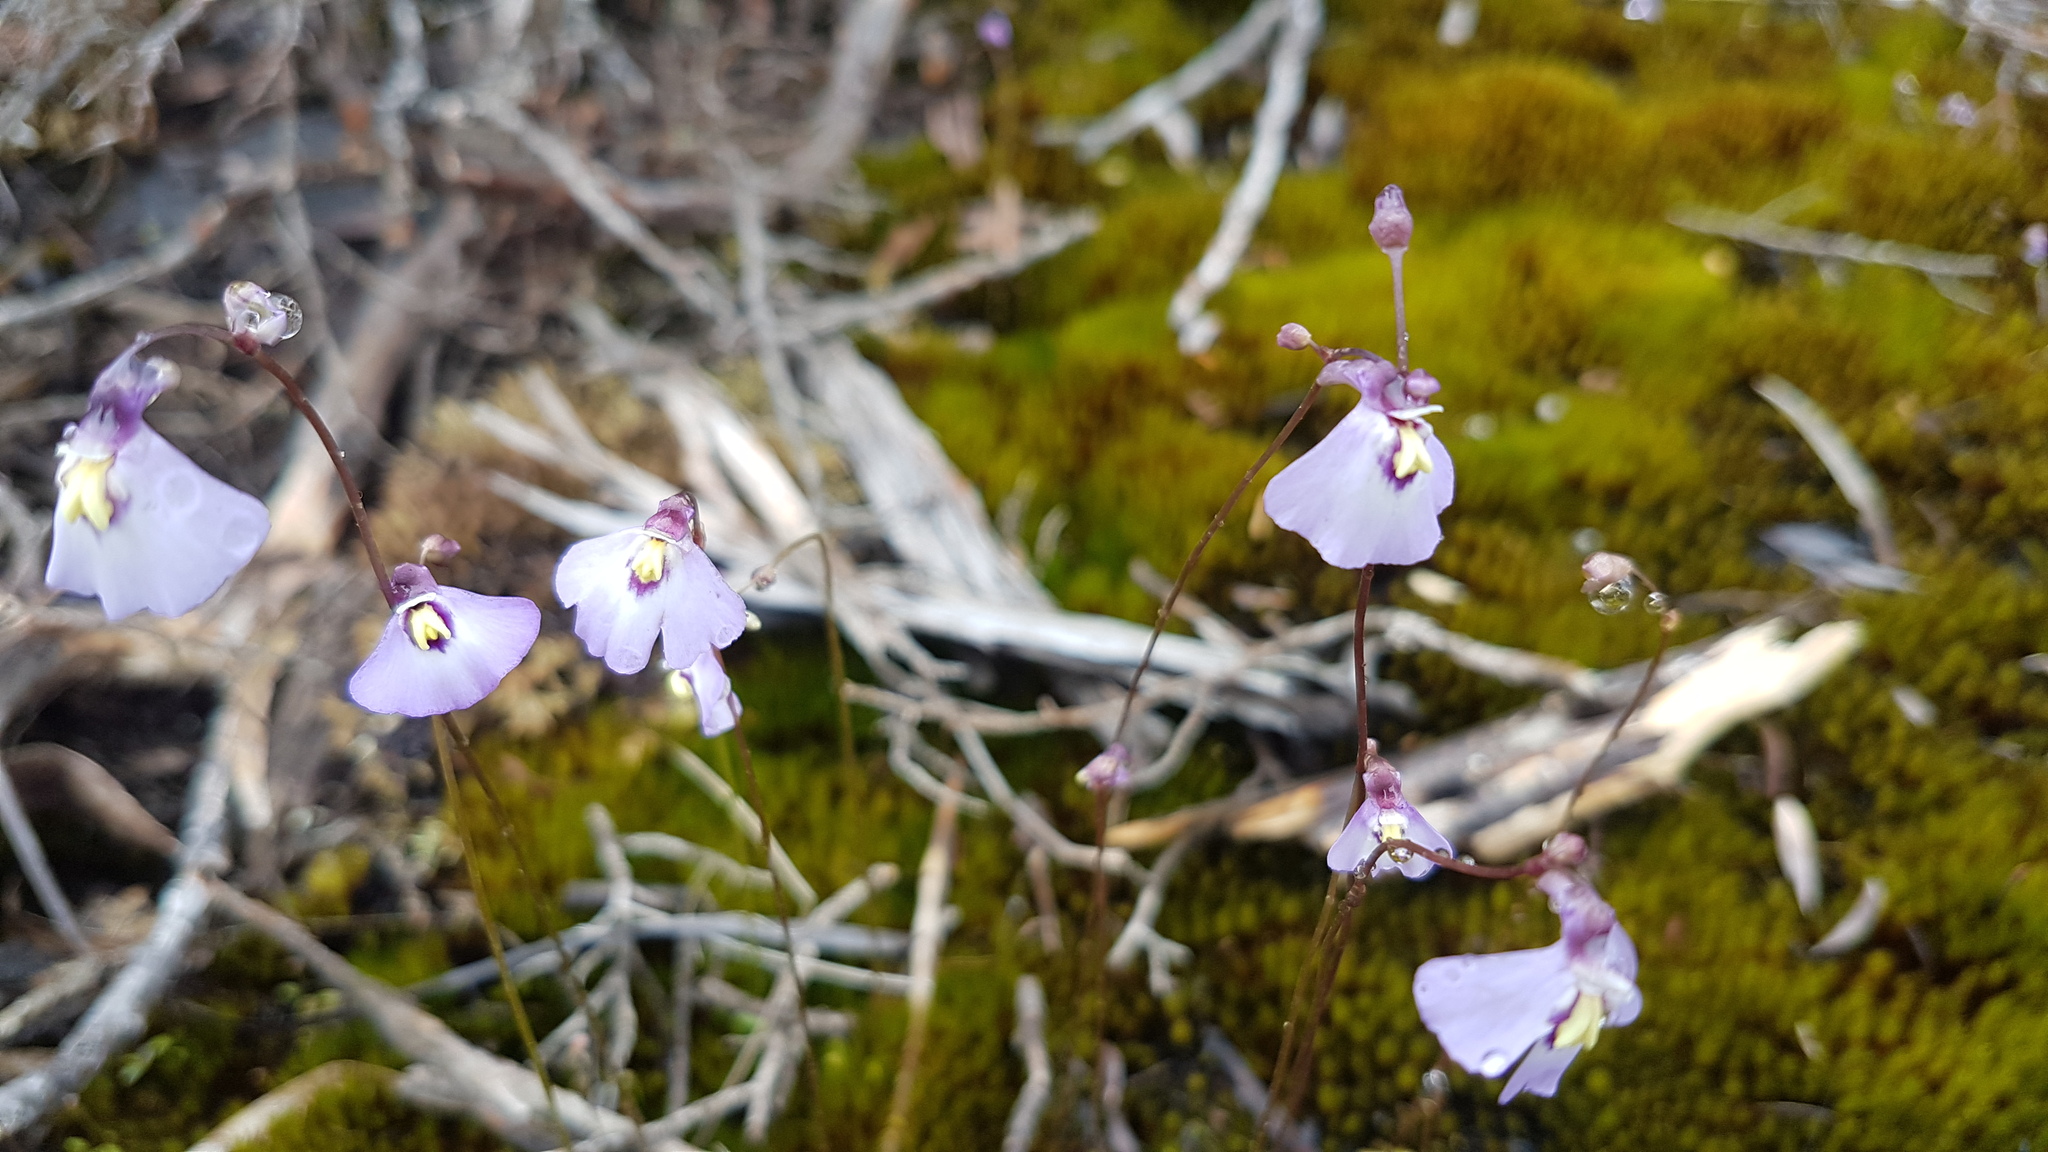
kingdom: Plantae
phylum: Tracheophyta
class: Magnoliopsida
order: Lamiales
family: Lentibulariaceae
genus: Utricularia
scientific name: Utricularia grampiana
